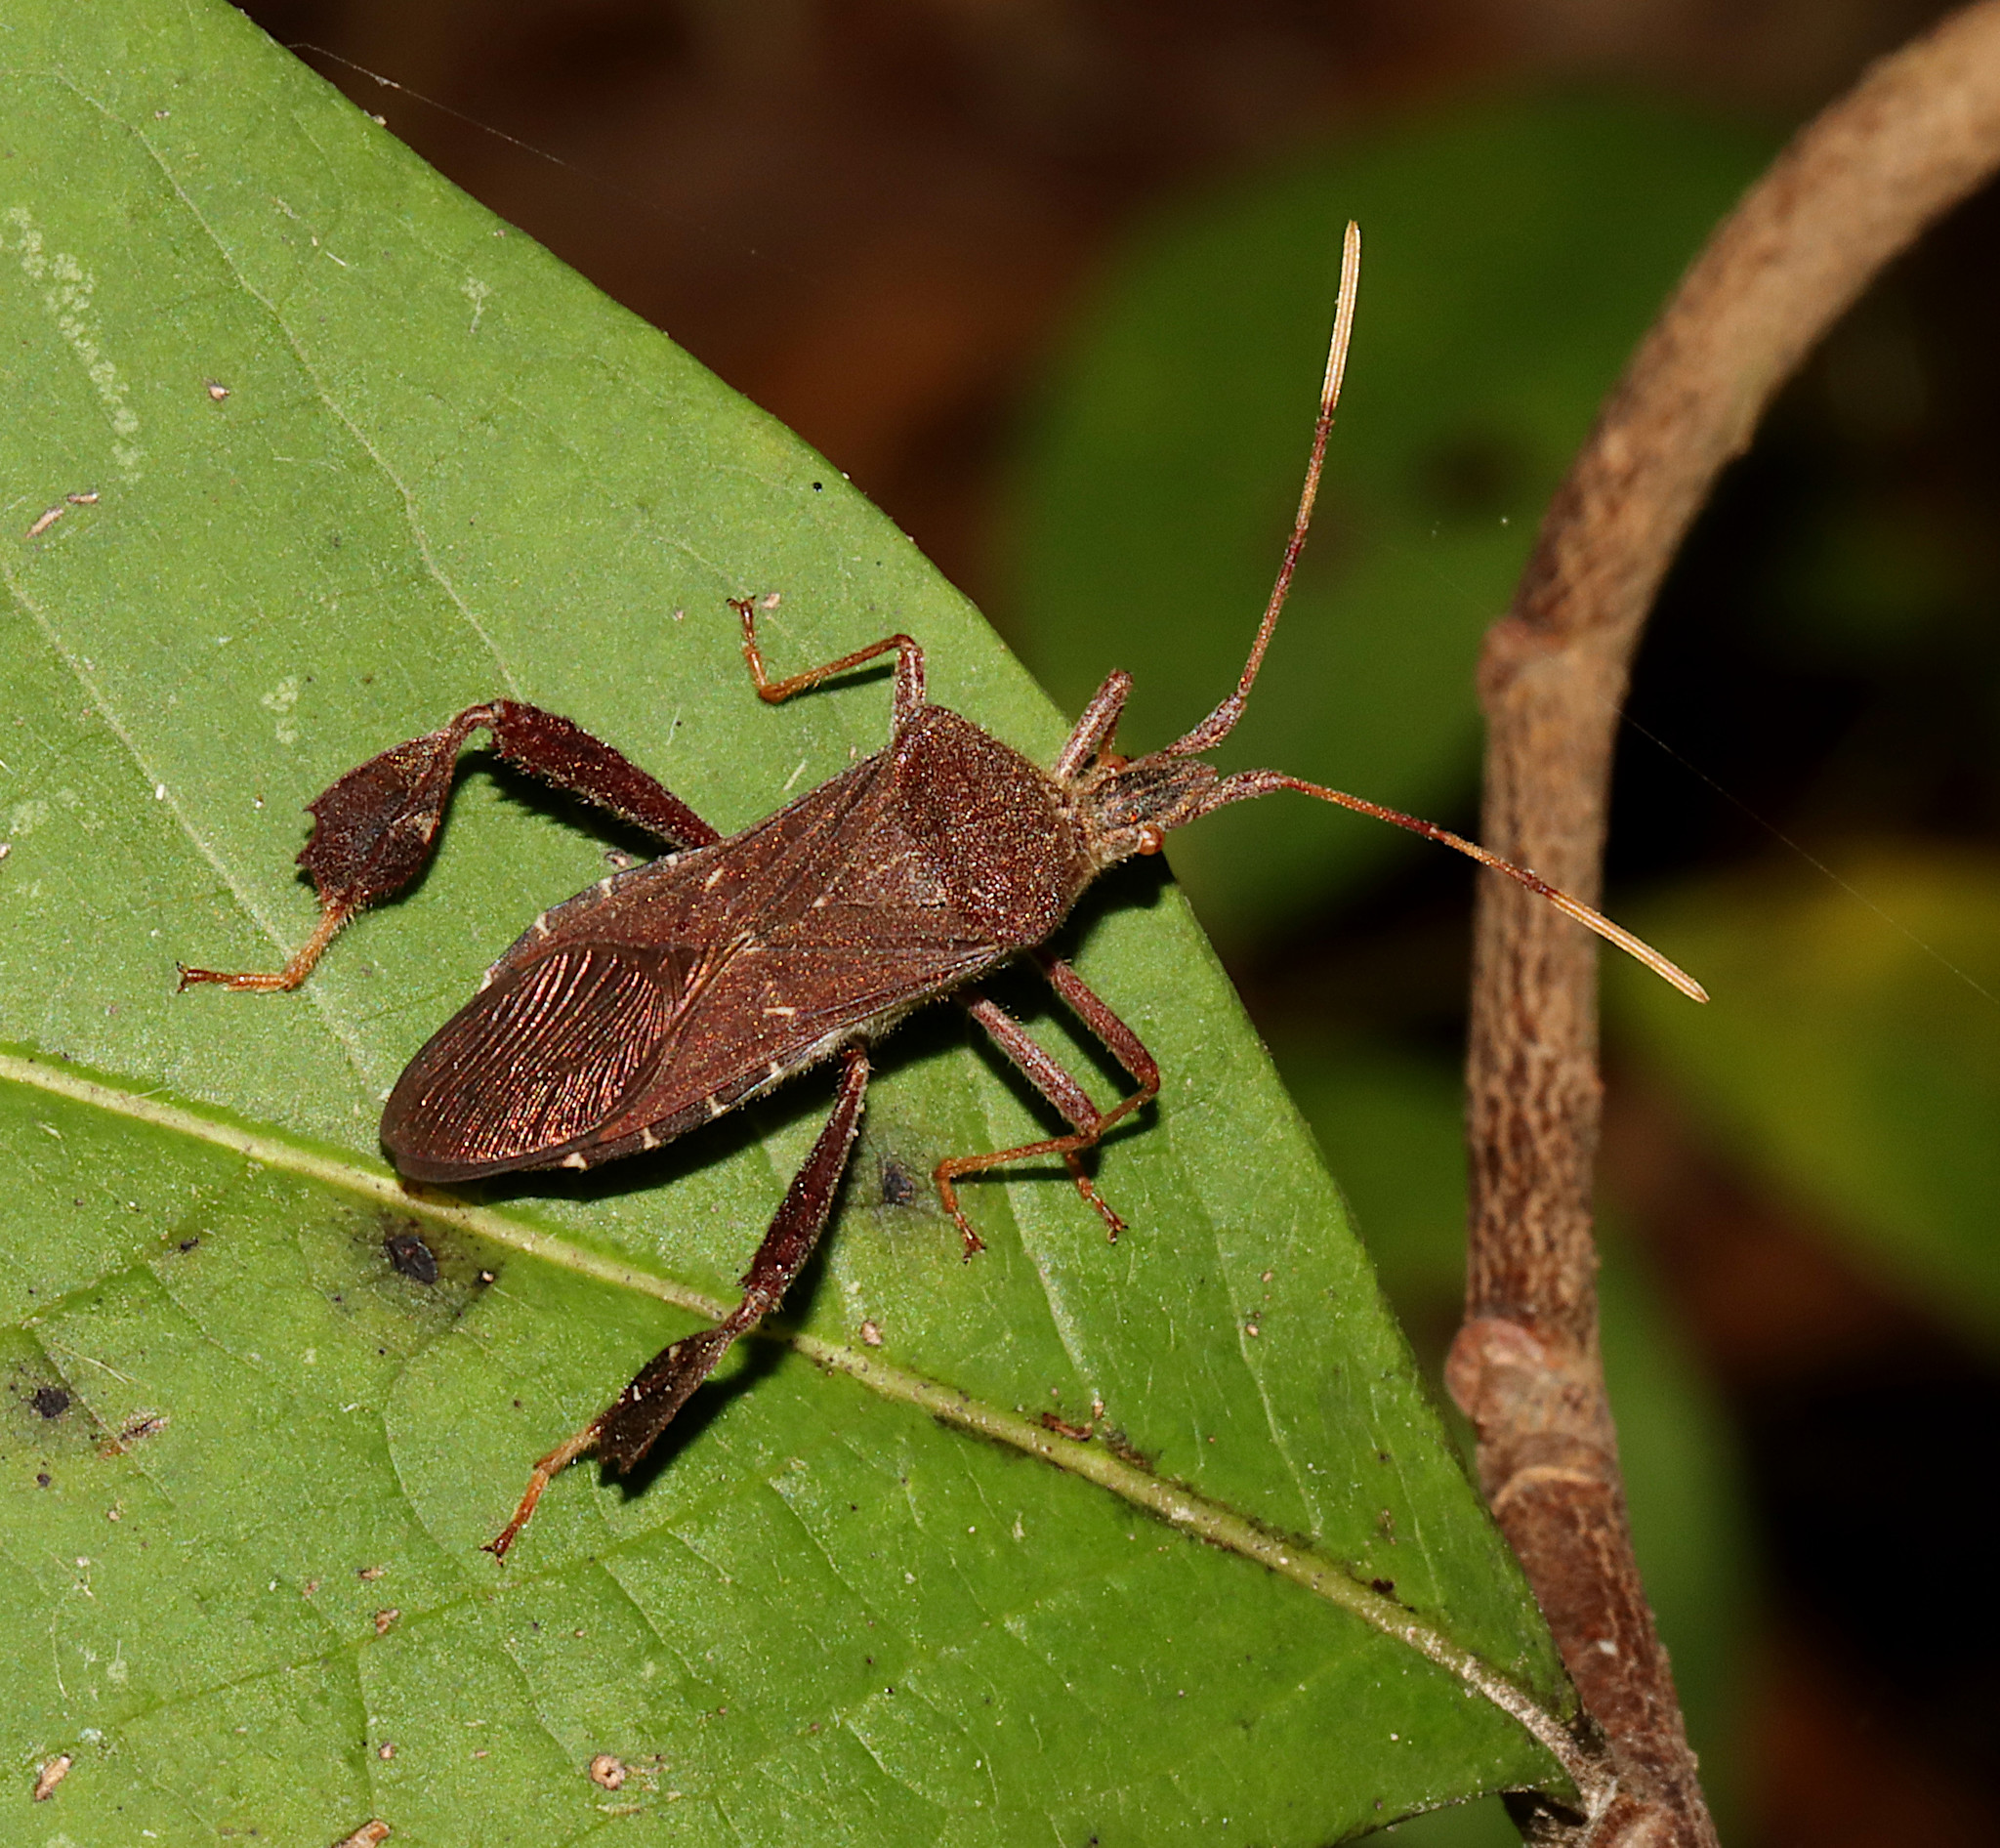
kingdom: Animalia
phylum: Arthropoda
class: Insecta
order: Hemiptera
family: Coreidae
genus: Leptoglossus
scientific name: Leptoglossus oppositus
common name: Northern leaf-footed bug
